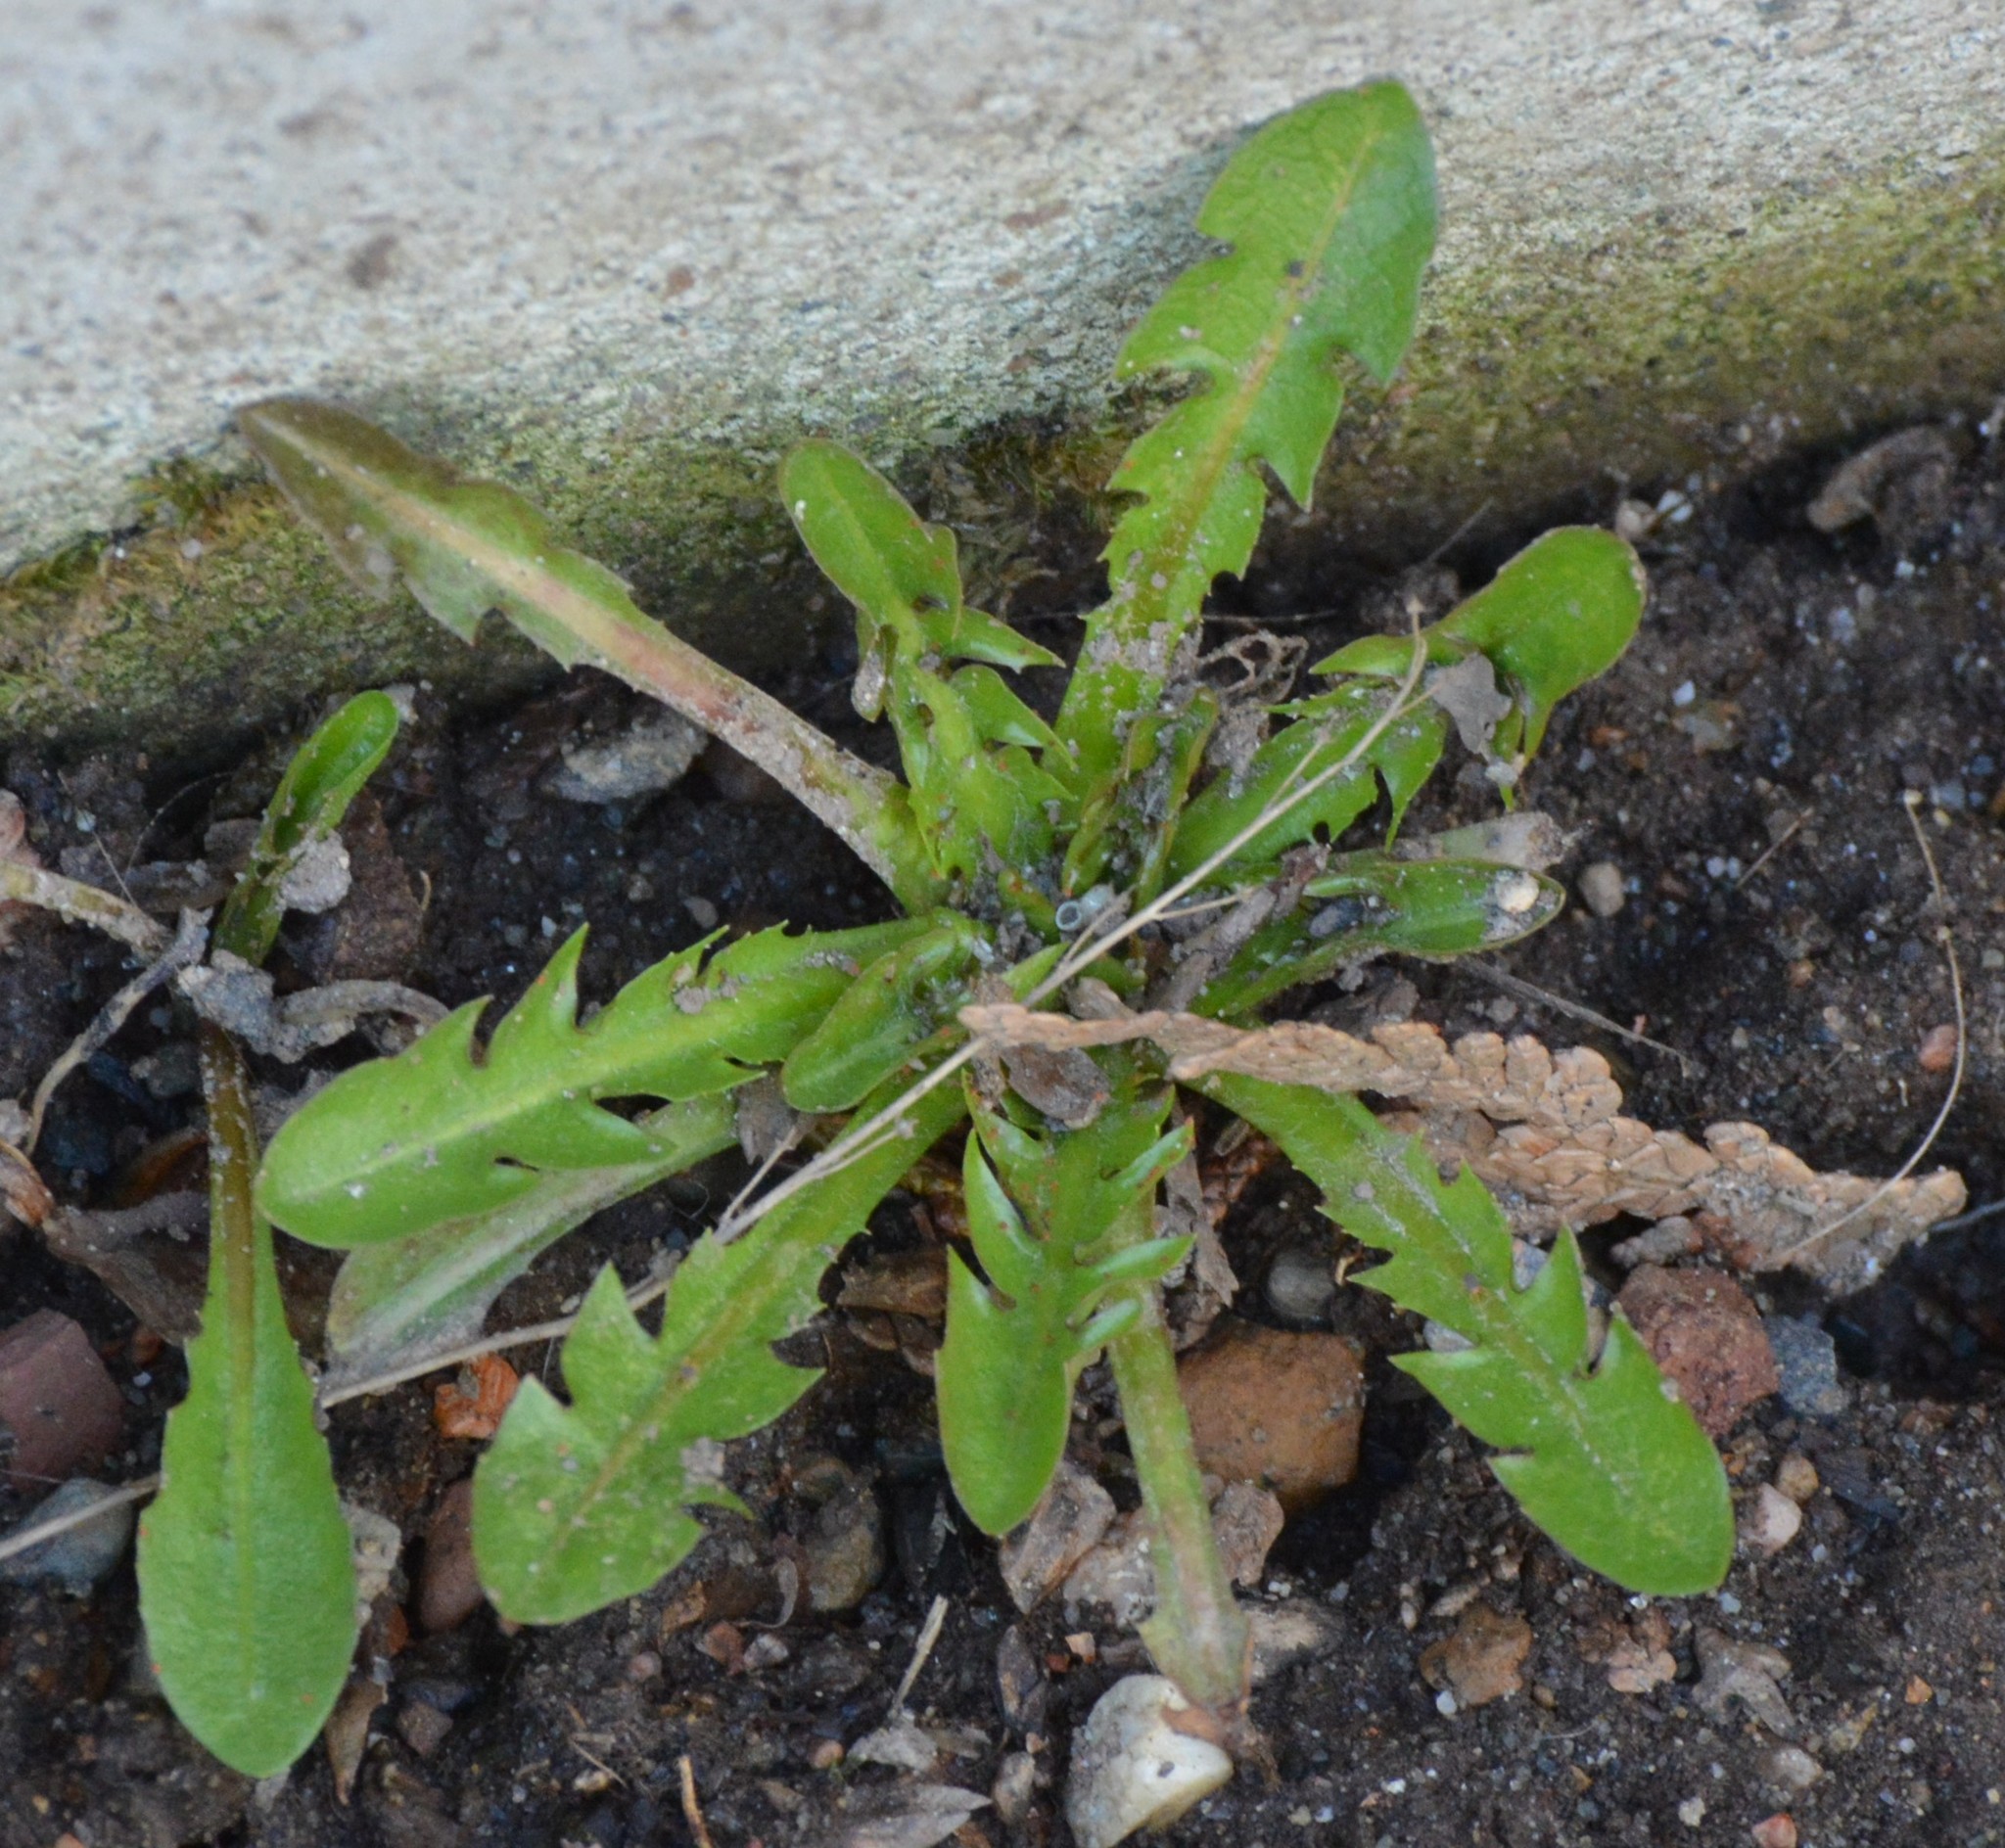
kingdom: Plantae
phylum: Tracheophyta
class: Magnoliopsida
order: Asterales
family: Asteraceae
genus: Taraxacum
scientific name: Taraxacum officinale
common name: Common dandelion
